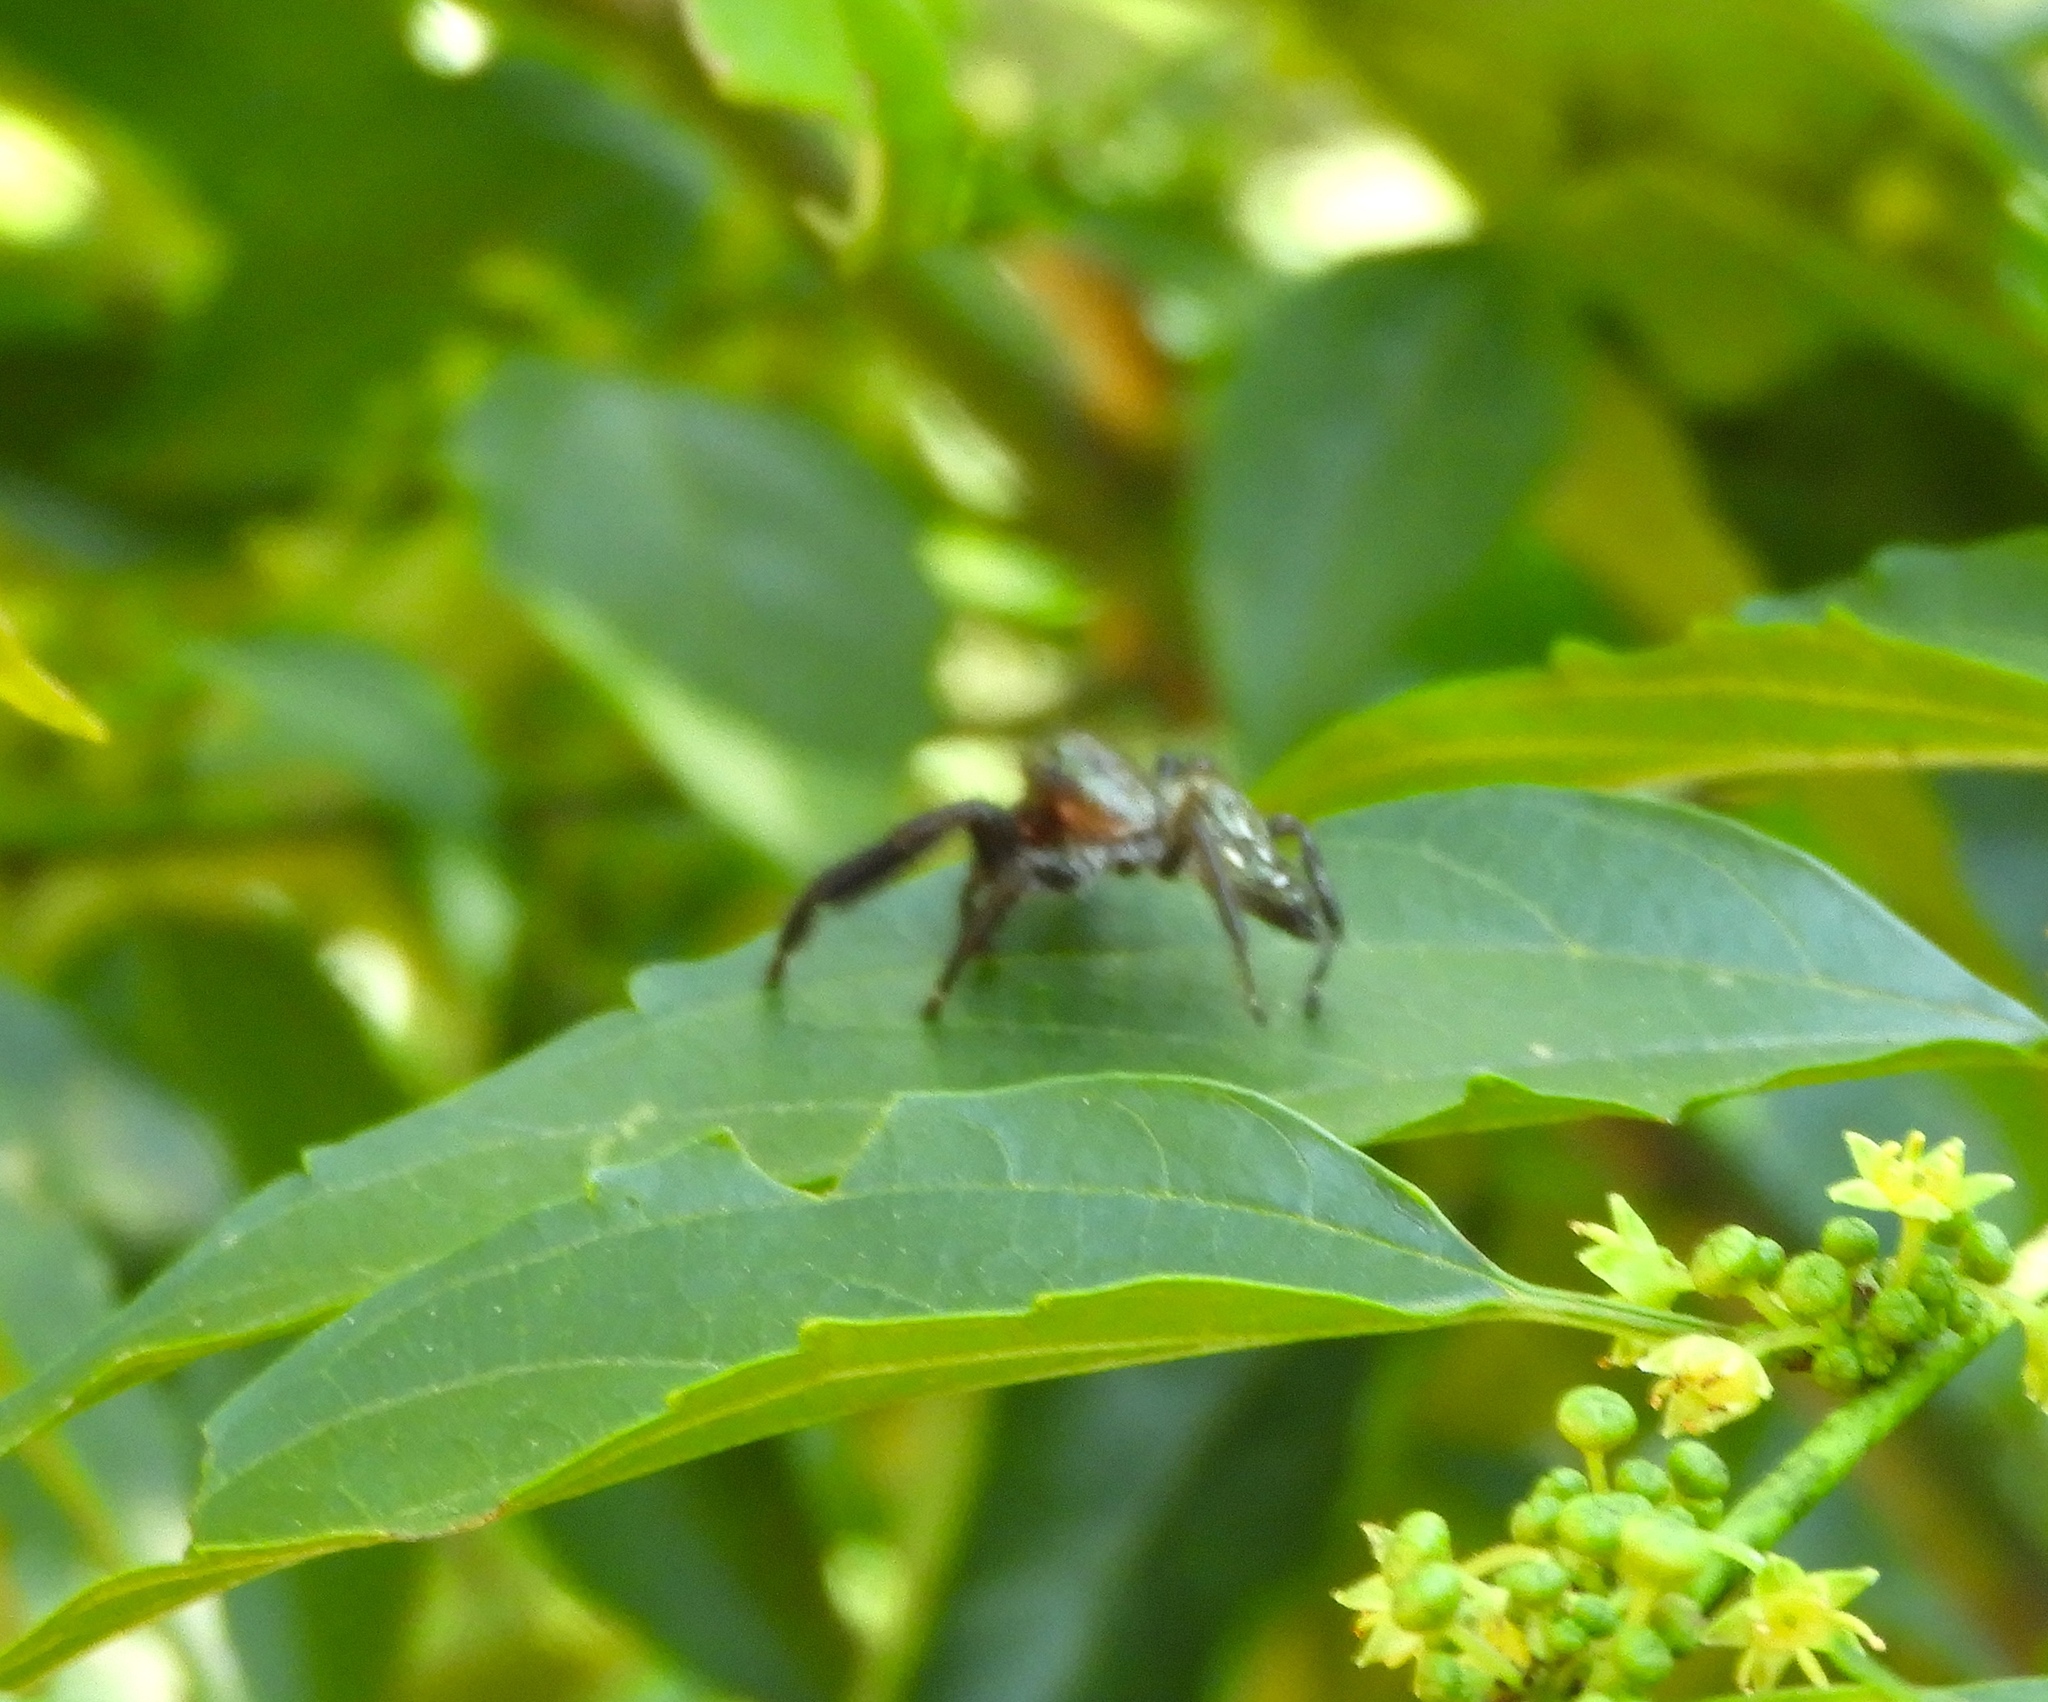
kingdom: Animalia
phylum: Arthropoda
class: Arachnida
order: Araneae
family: Salticidae
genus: Paraphidippus
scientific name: Paraphidippus
